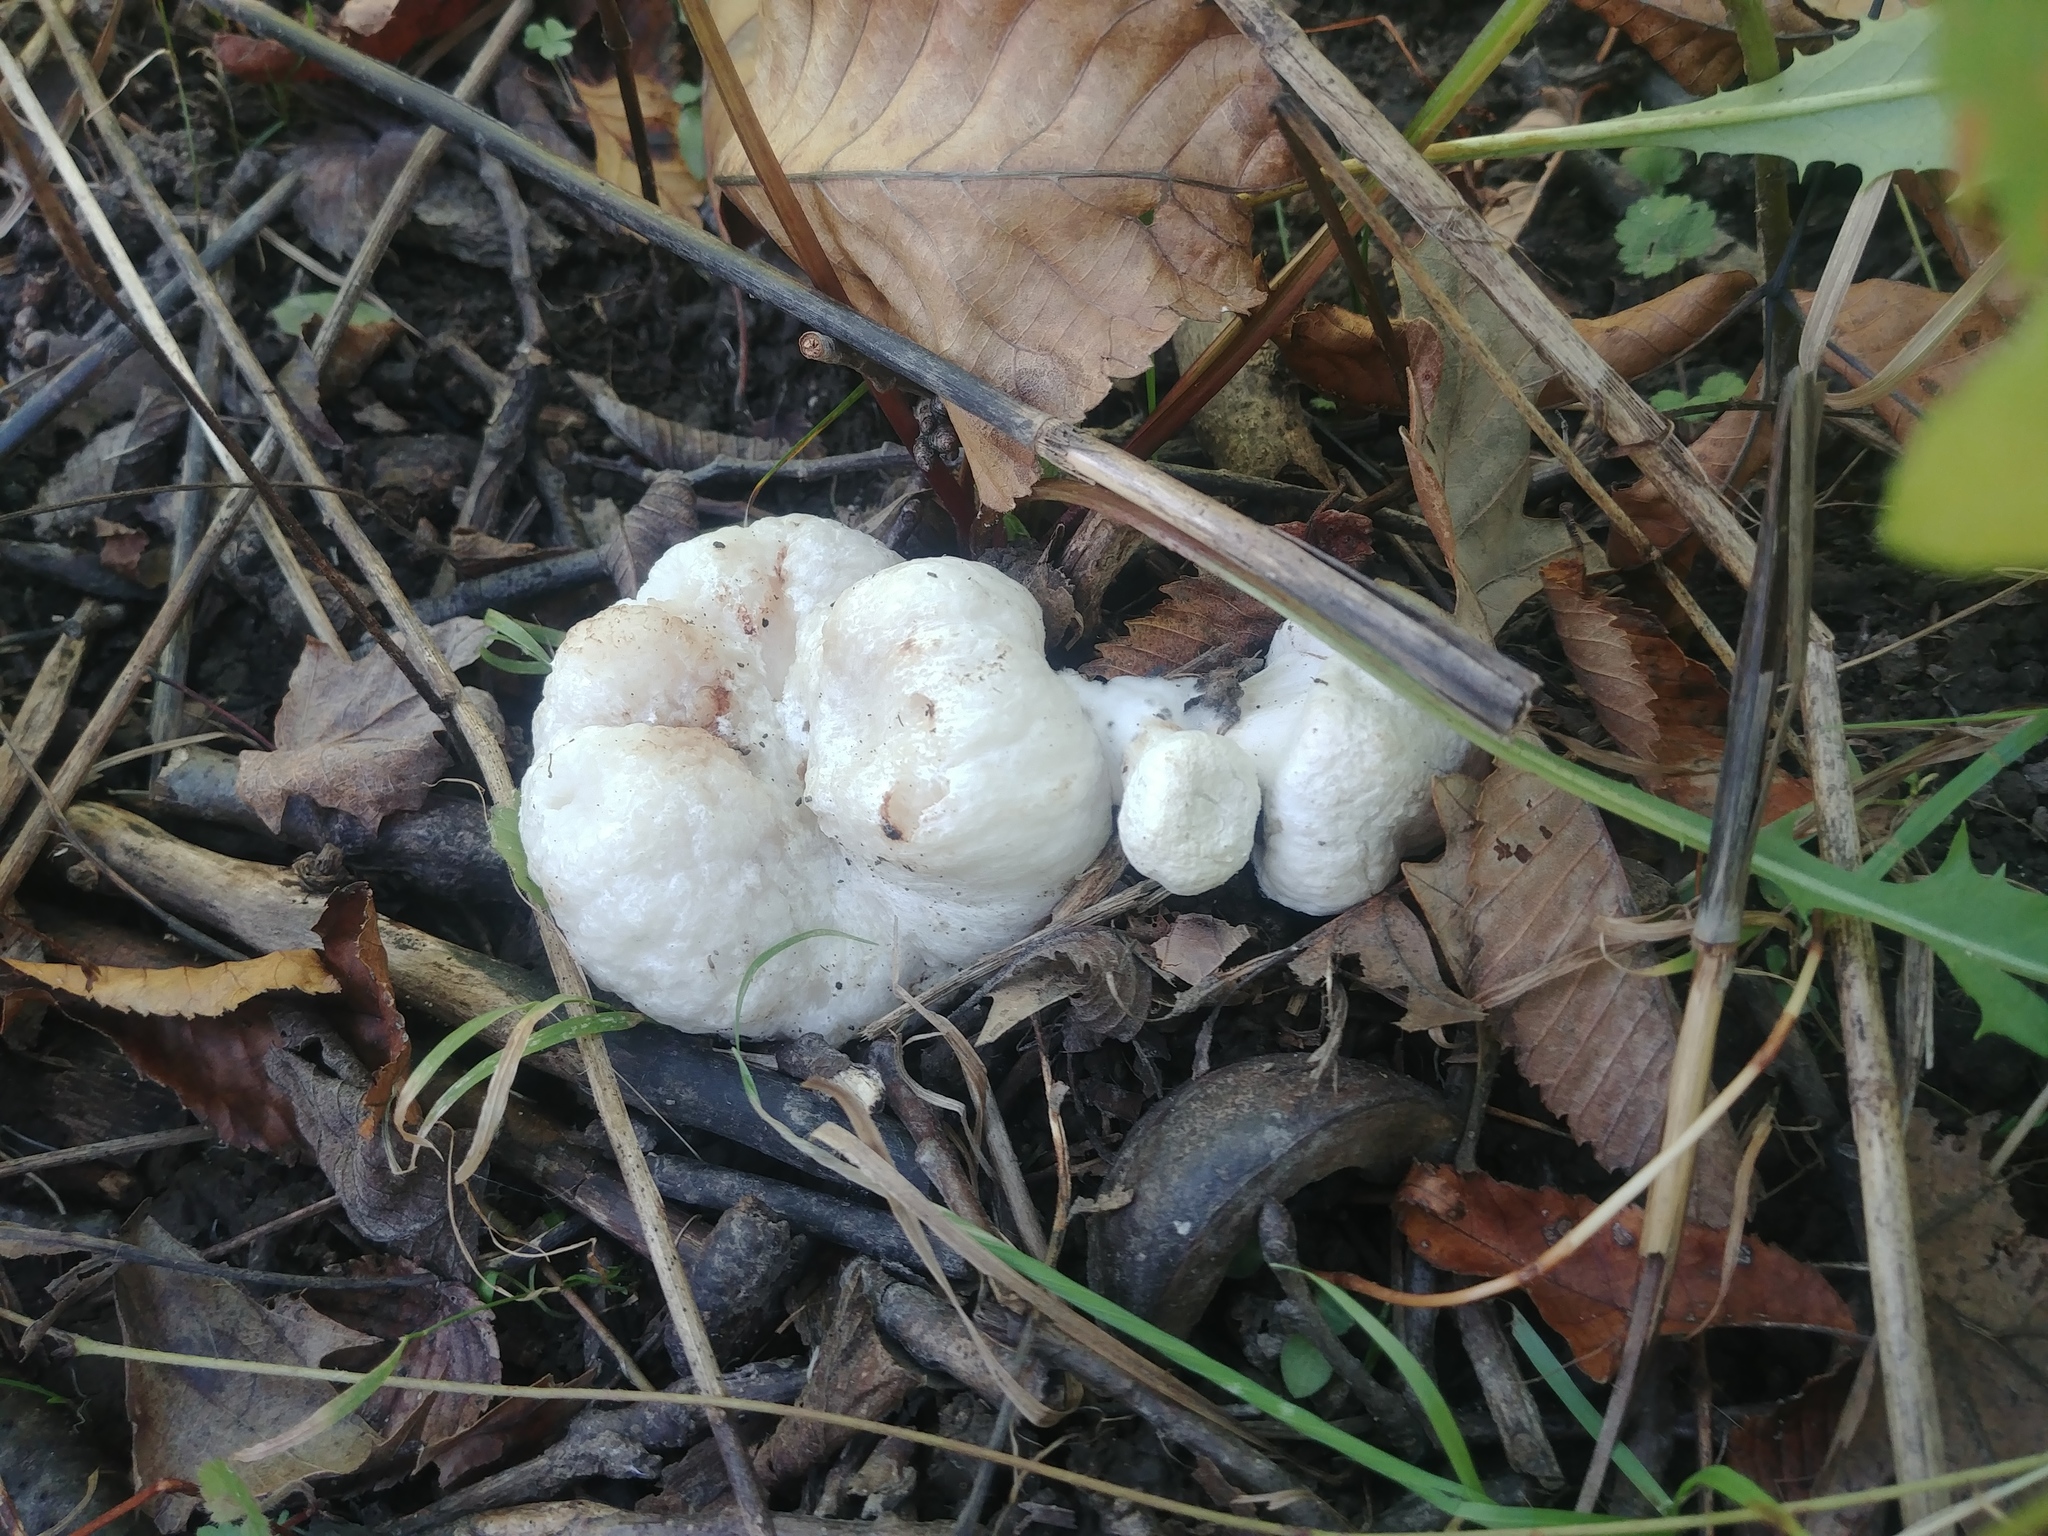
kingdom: Fungi
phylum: Basidiomycota
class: Agaricomycetes
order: Agaricales
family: Entolomataceae
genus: Entoloma
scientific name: Entoloma abortivum
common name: Aborted entoloma
